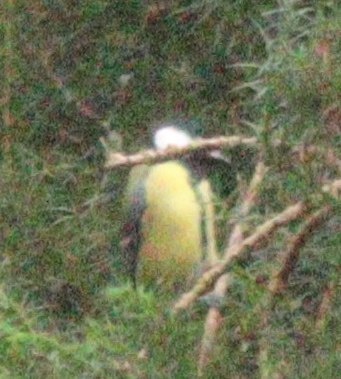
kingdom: Animalia
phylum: Chordata
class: Aves
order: Passeriformes
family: Paridae
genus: Parus
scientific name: Parus major
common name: Great tit
